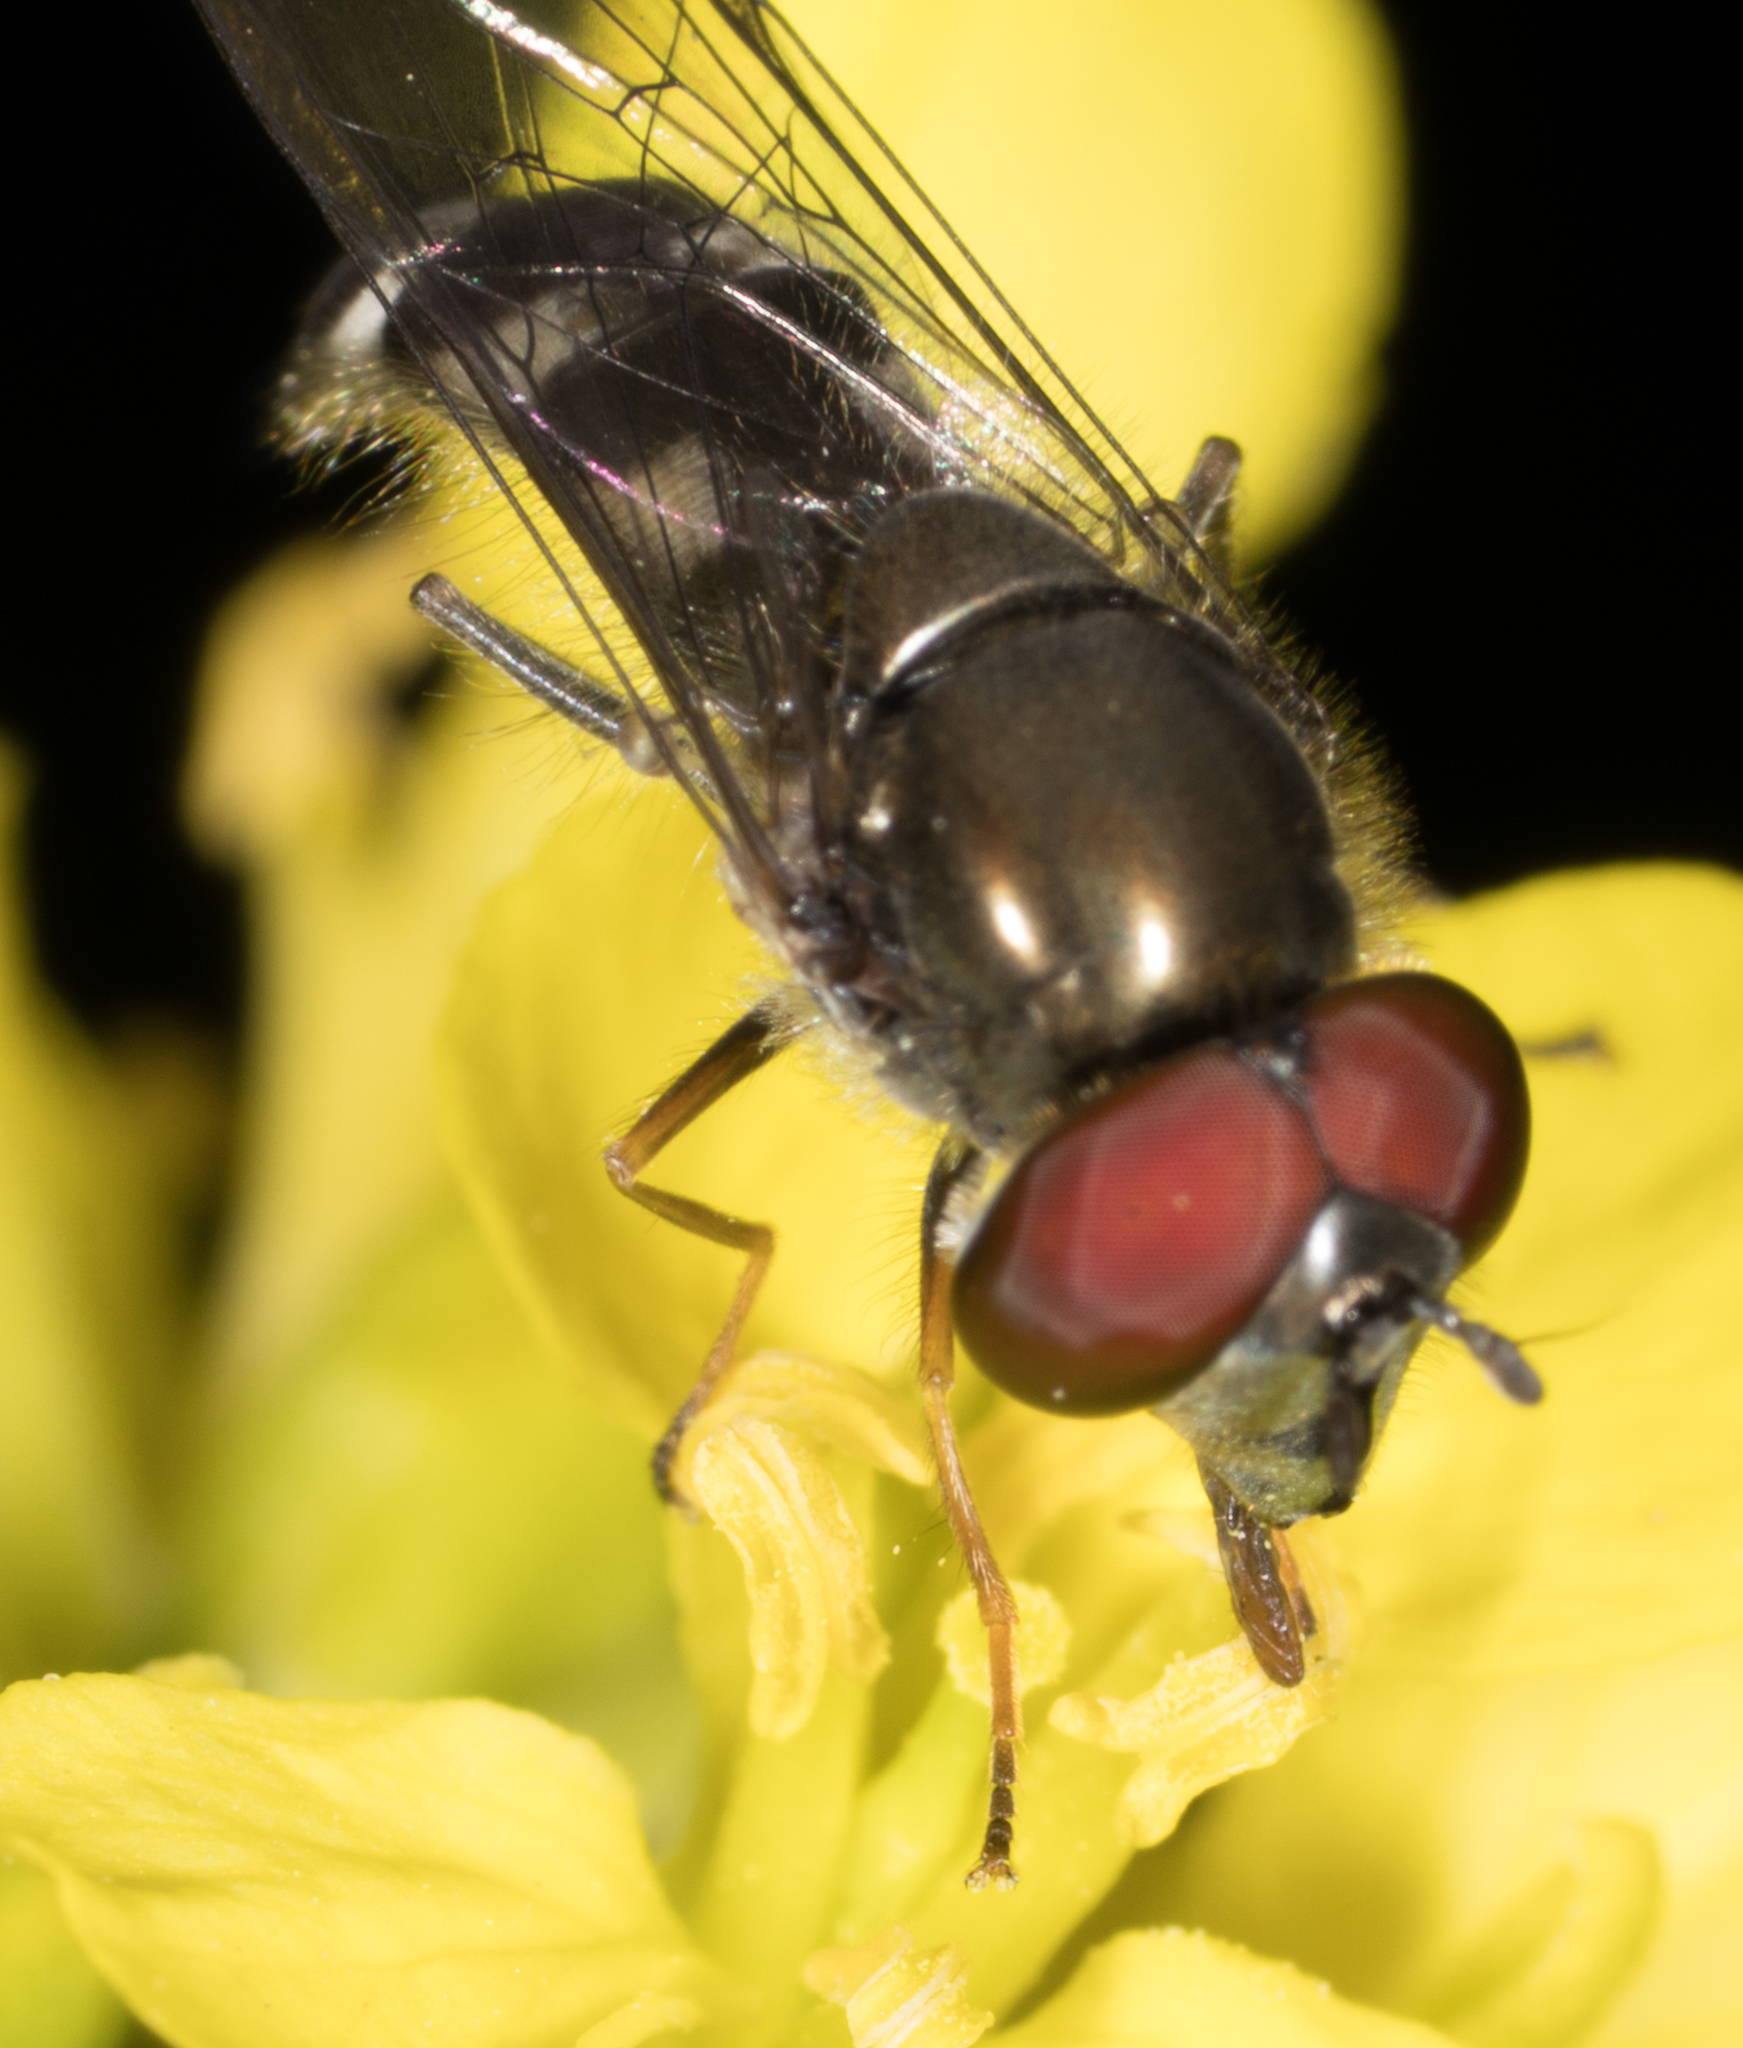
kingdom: Animalia
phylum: Arthropoda
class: Insecta
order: Diptera
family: Syrphidae
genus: Platycheirus
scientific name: Platycheirus trichopus
